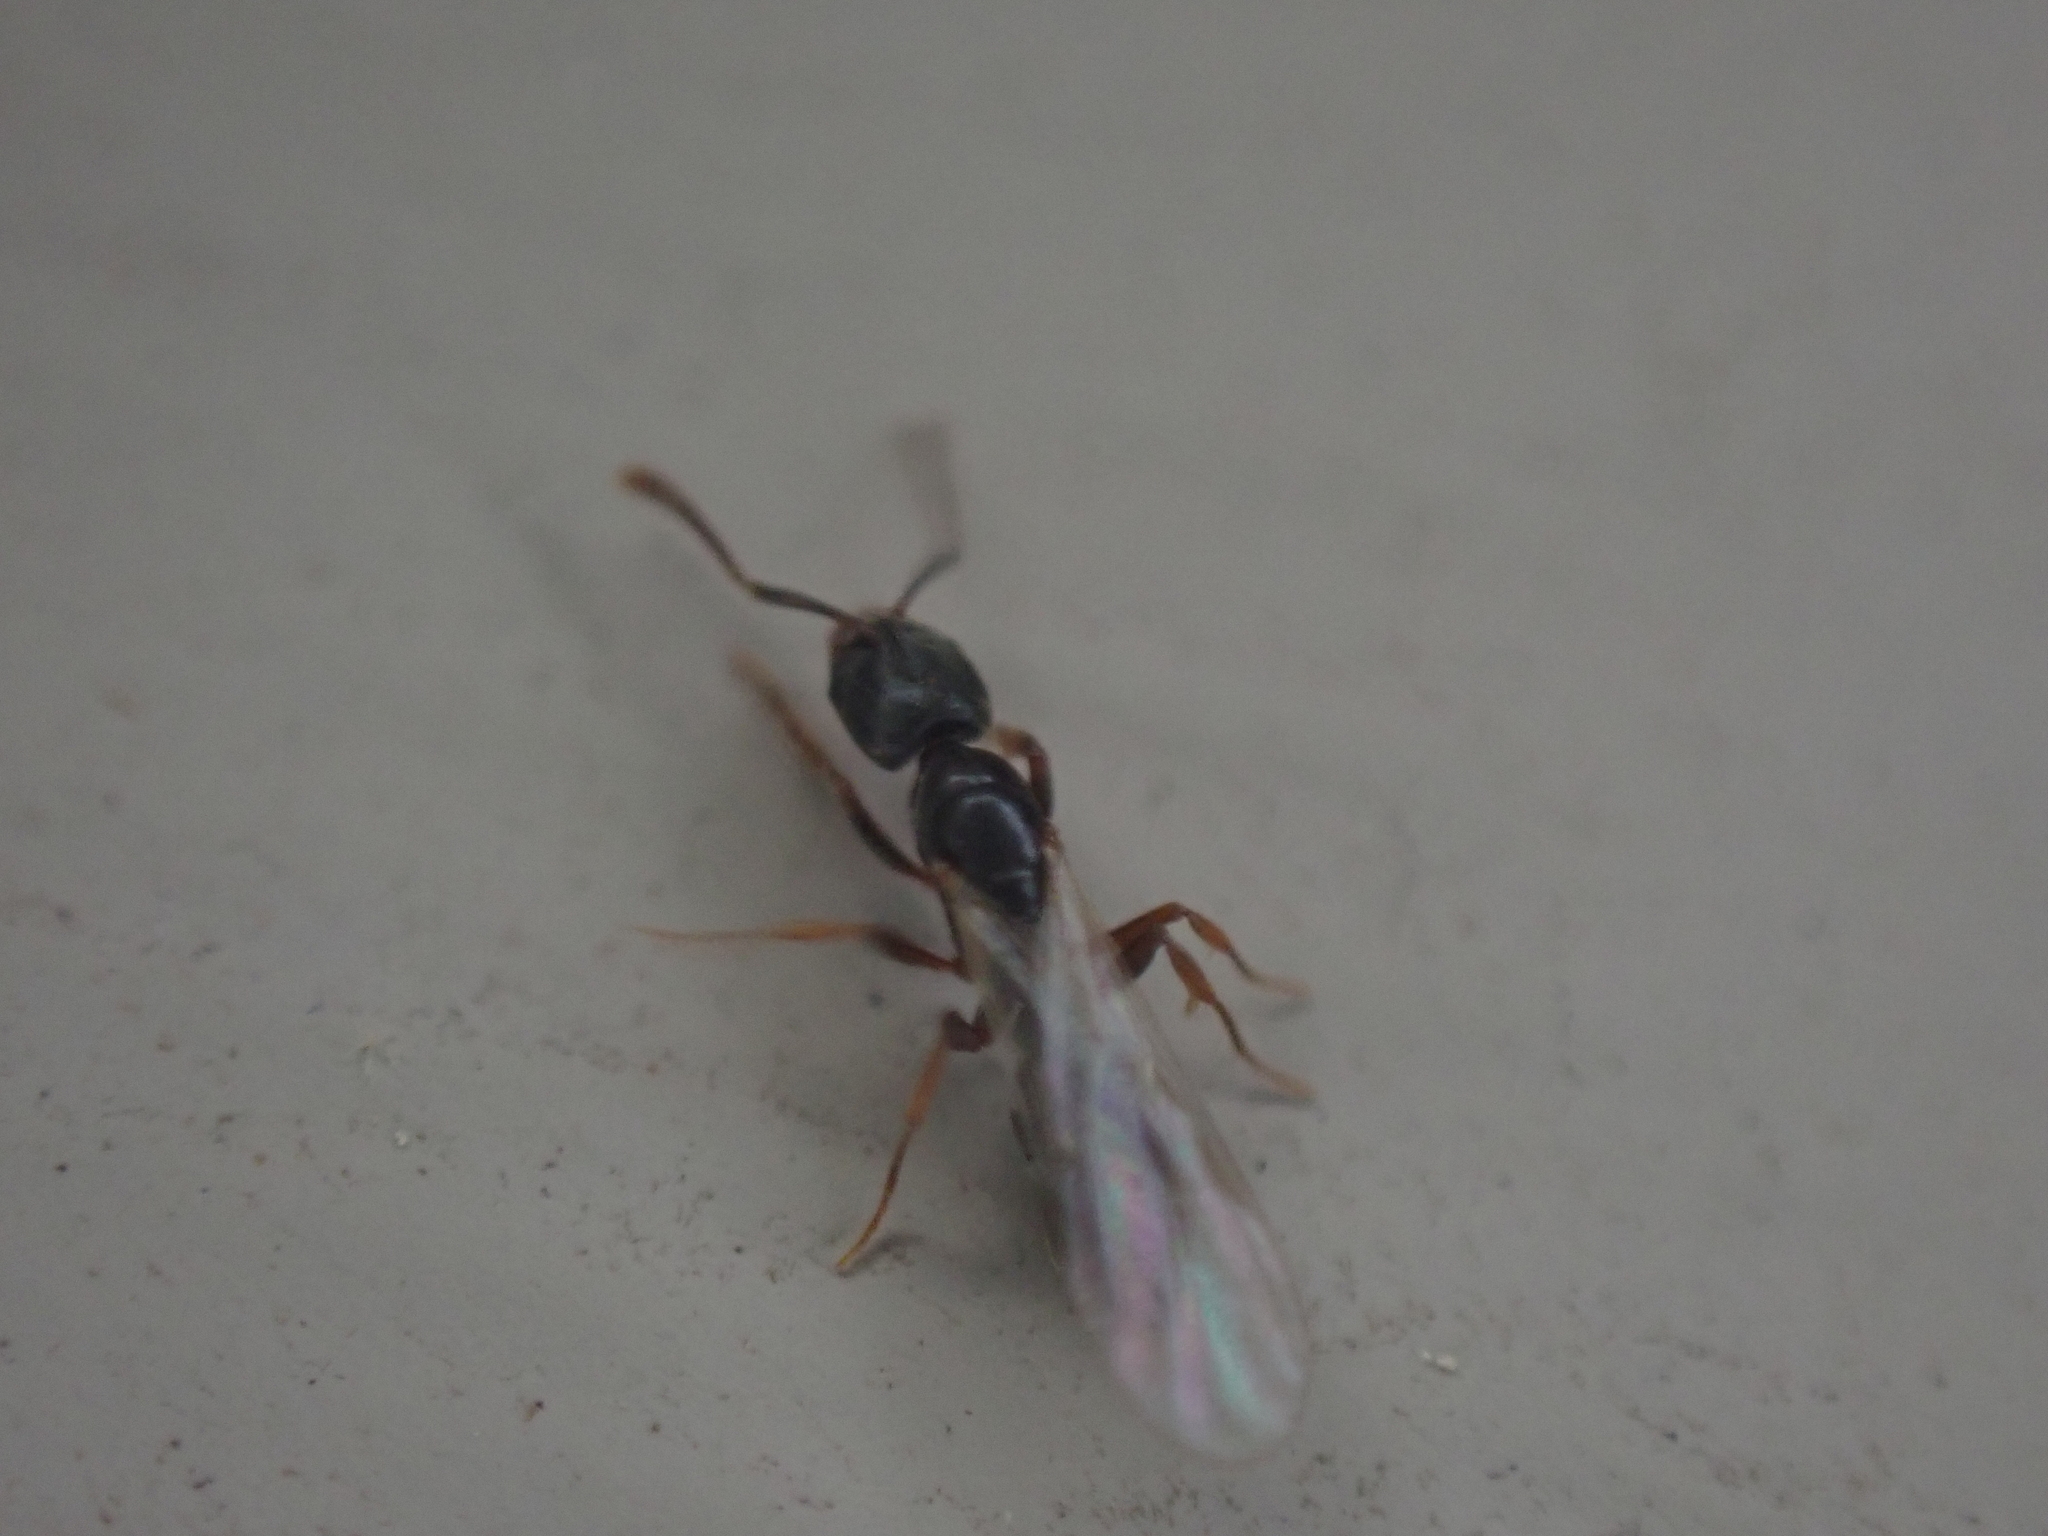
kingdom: Animalia
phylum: Arthropoda
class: Insecta
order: Hymenoptera
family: Formicidae
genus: Pachycondyla
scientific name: Pachycondyla chinensis
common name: Asian needle ant
